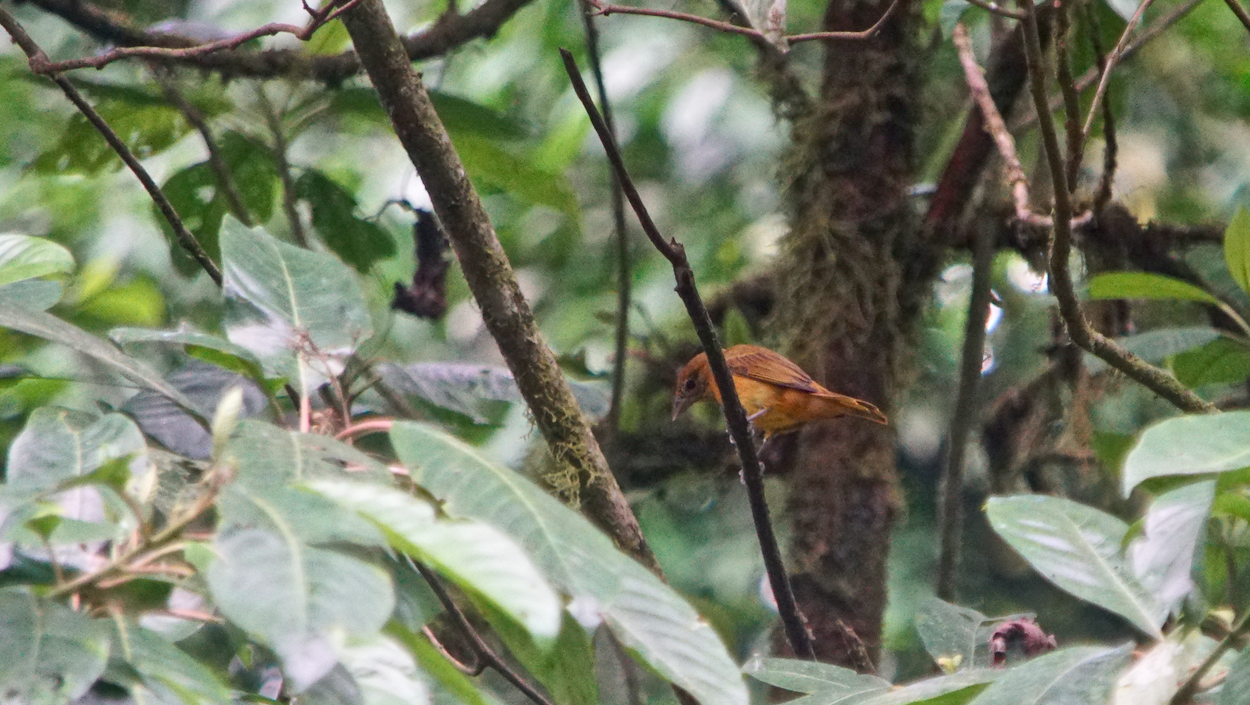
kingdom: Animalia
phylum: Chordata
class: Aves
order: Passeriformes
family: Thraupidae
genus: Tachyphonus
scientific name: Tachyphonus rufus
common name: White-lined tanager
